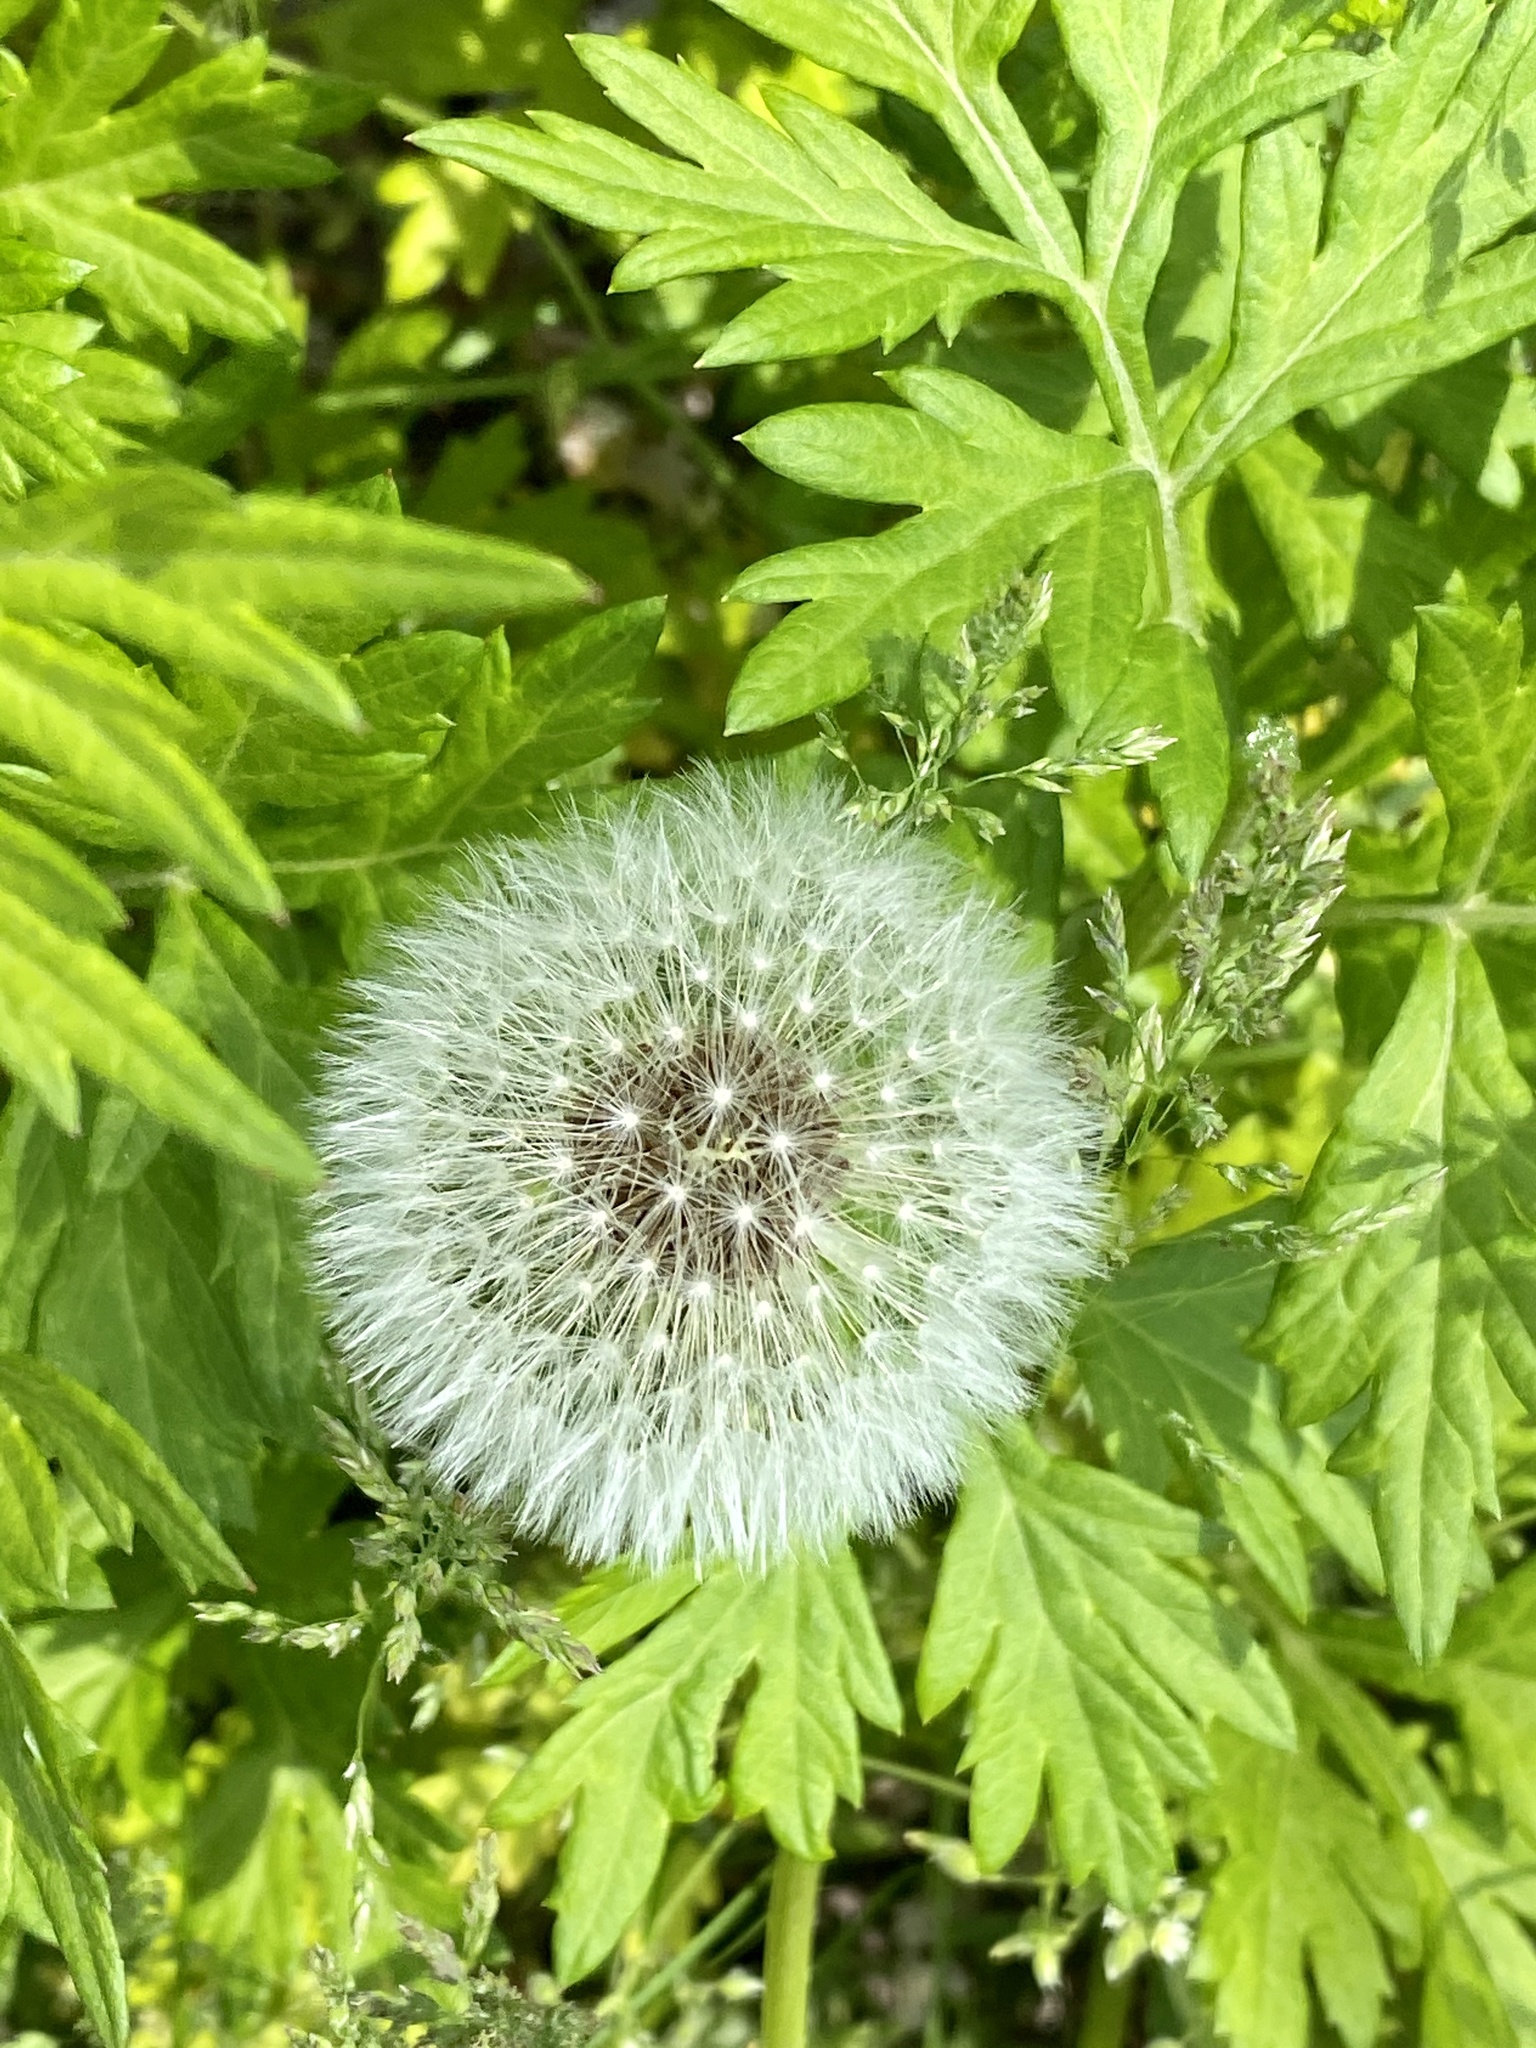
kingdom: Plantae
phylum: Tracheophyta
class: Magnoliopsida
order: Asterales
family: Asteraceae
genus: Taraxacum
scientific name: Taraxacum officinale
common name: Common dandelion
